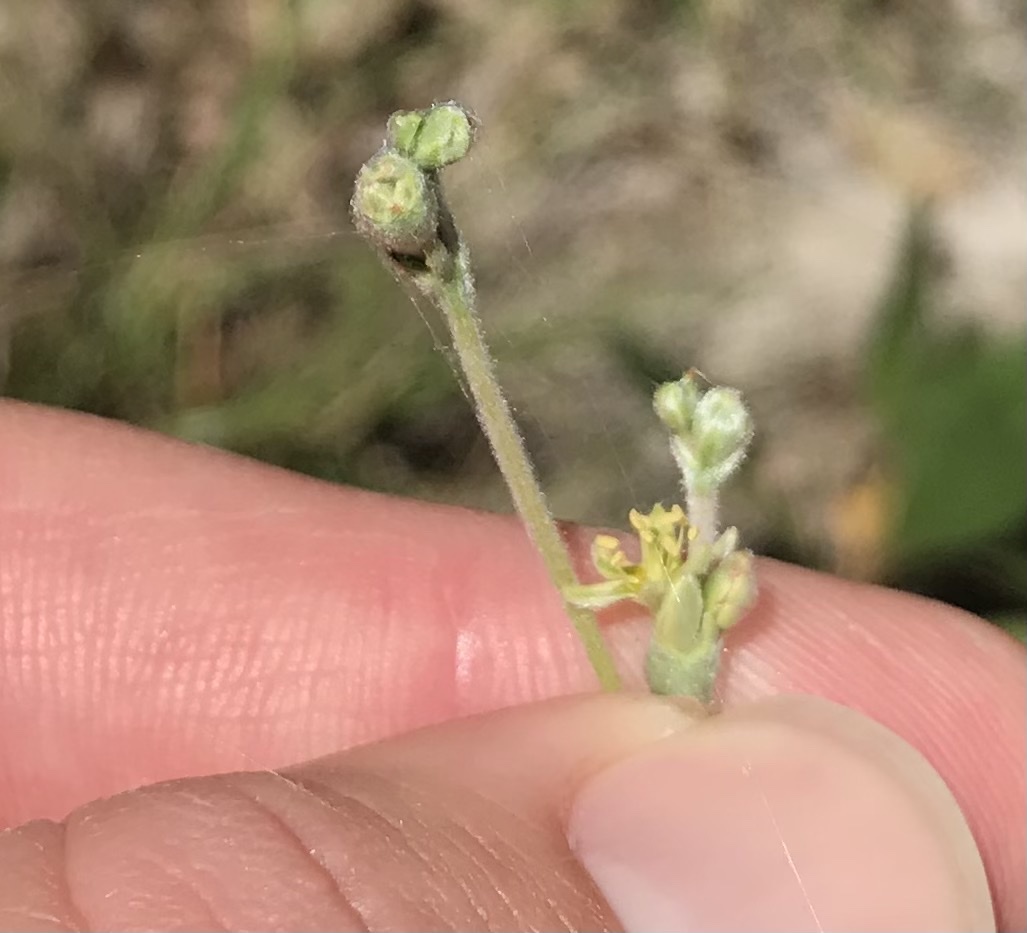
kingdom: Plantae
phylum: Tracheophyta
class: Magnoliopsida
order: Caryophyllales
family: Polygonaceae
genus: Eriogonum
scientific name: Eriogonum longifolium
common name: Longleaf wild buckwheat
